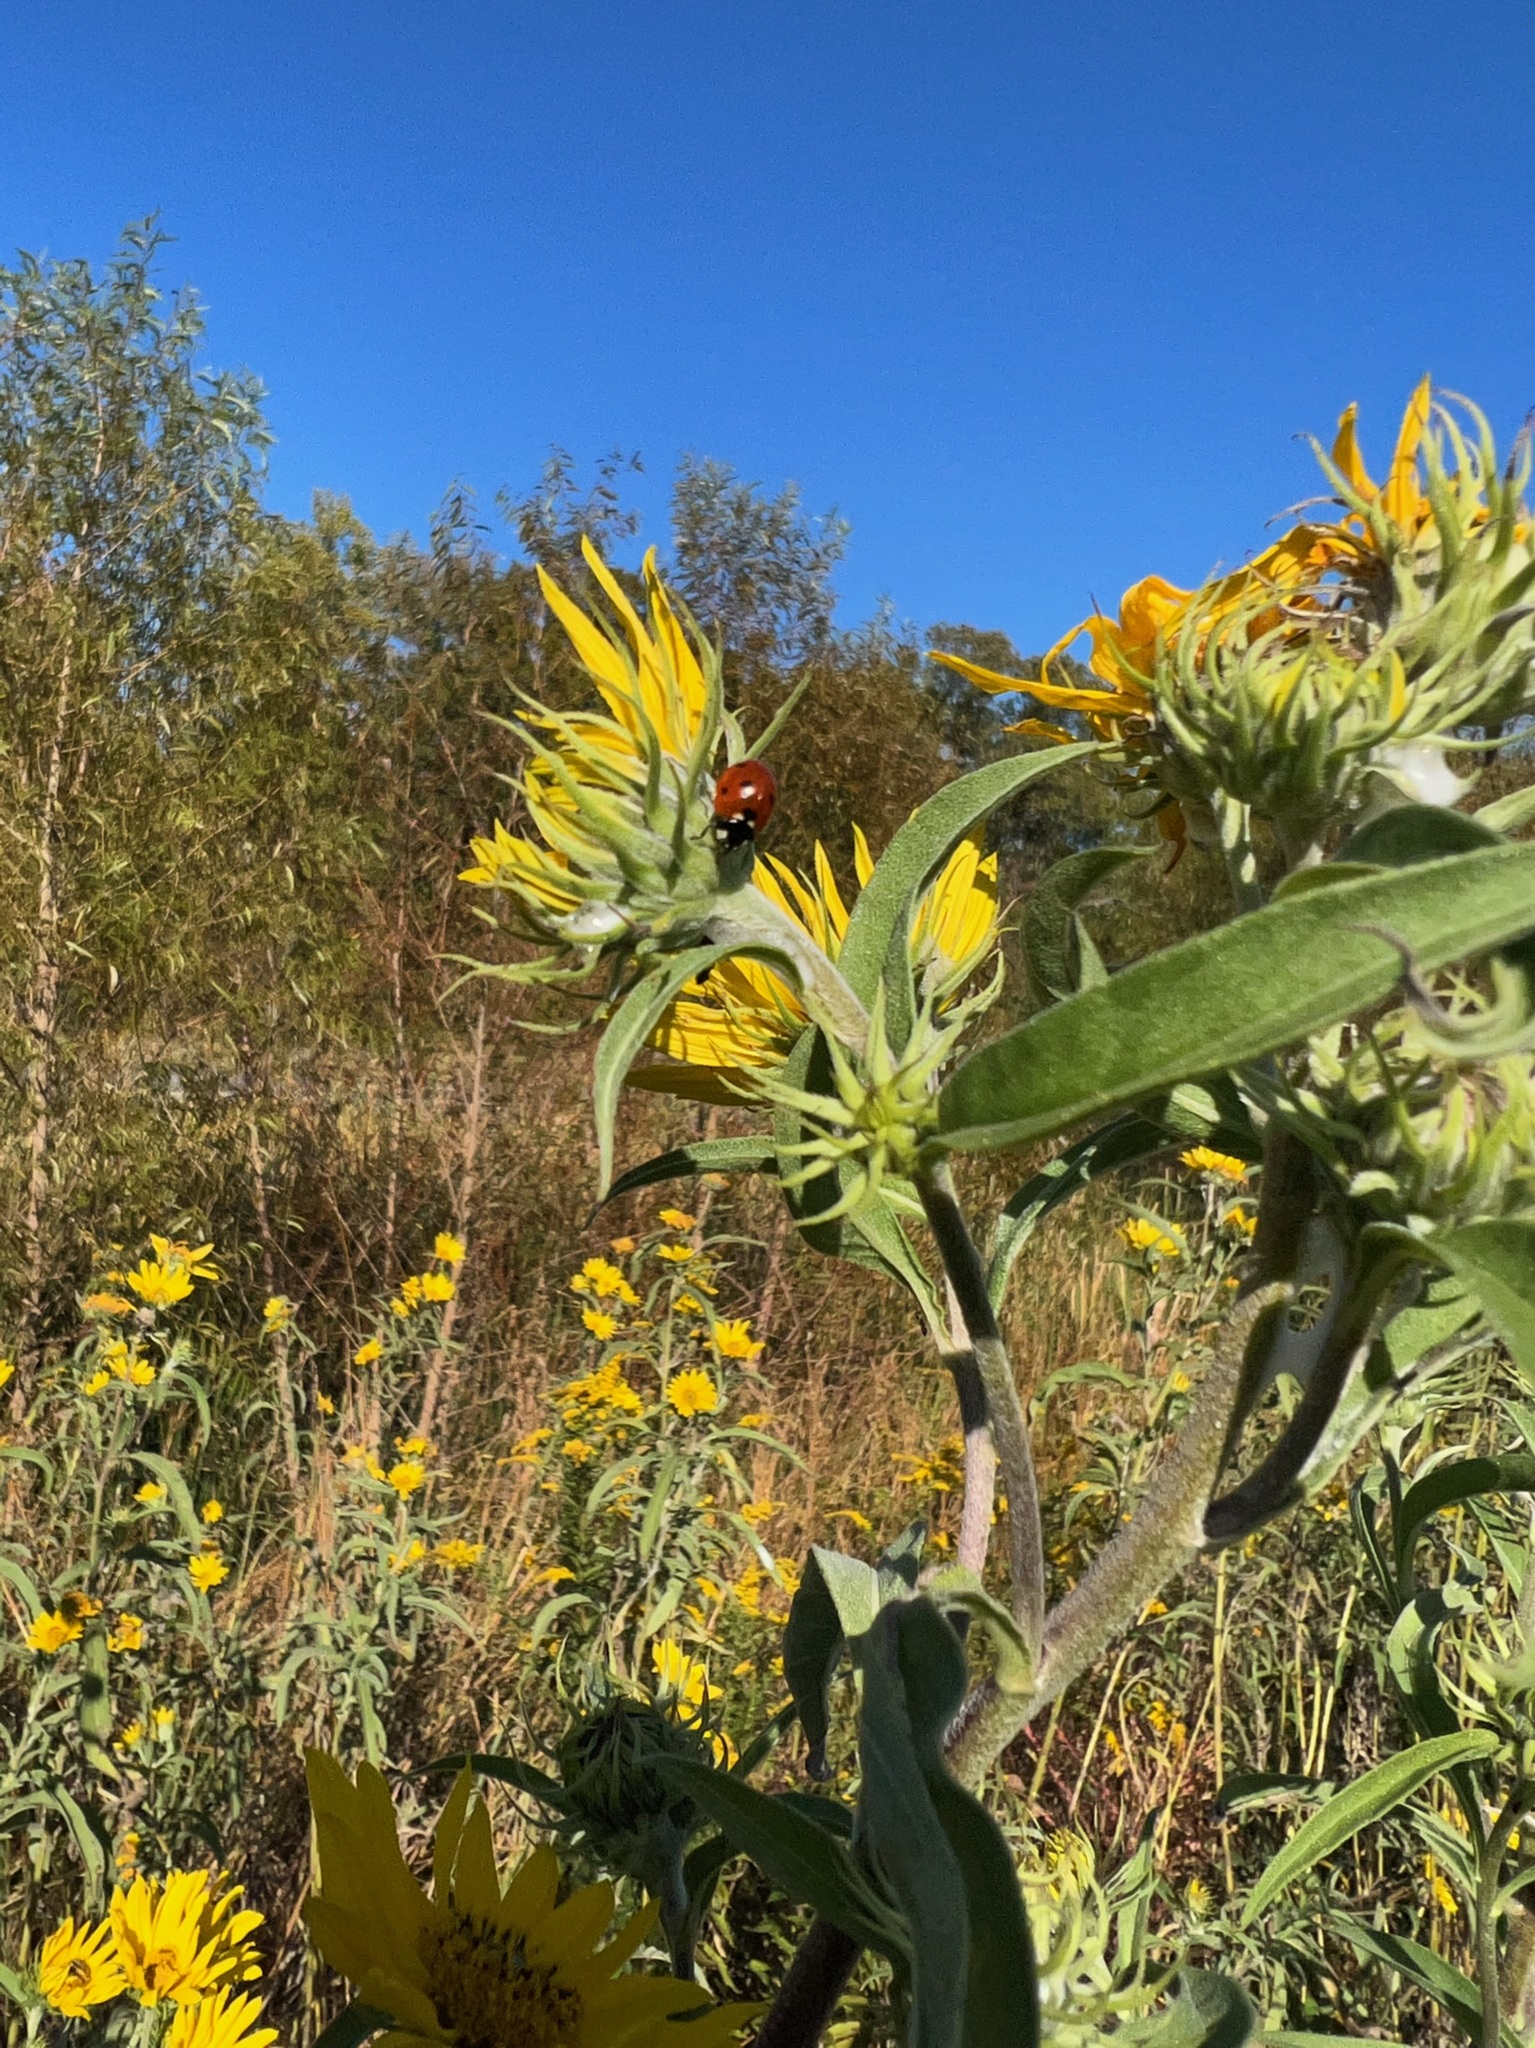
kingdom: Animalia
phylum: Arthropoda
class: Insecta
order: Coleoptera
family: Coccinellidae
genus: Coccinella
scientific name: Coccinella septempunctata
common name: Sevenspotted lady beetle
